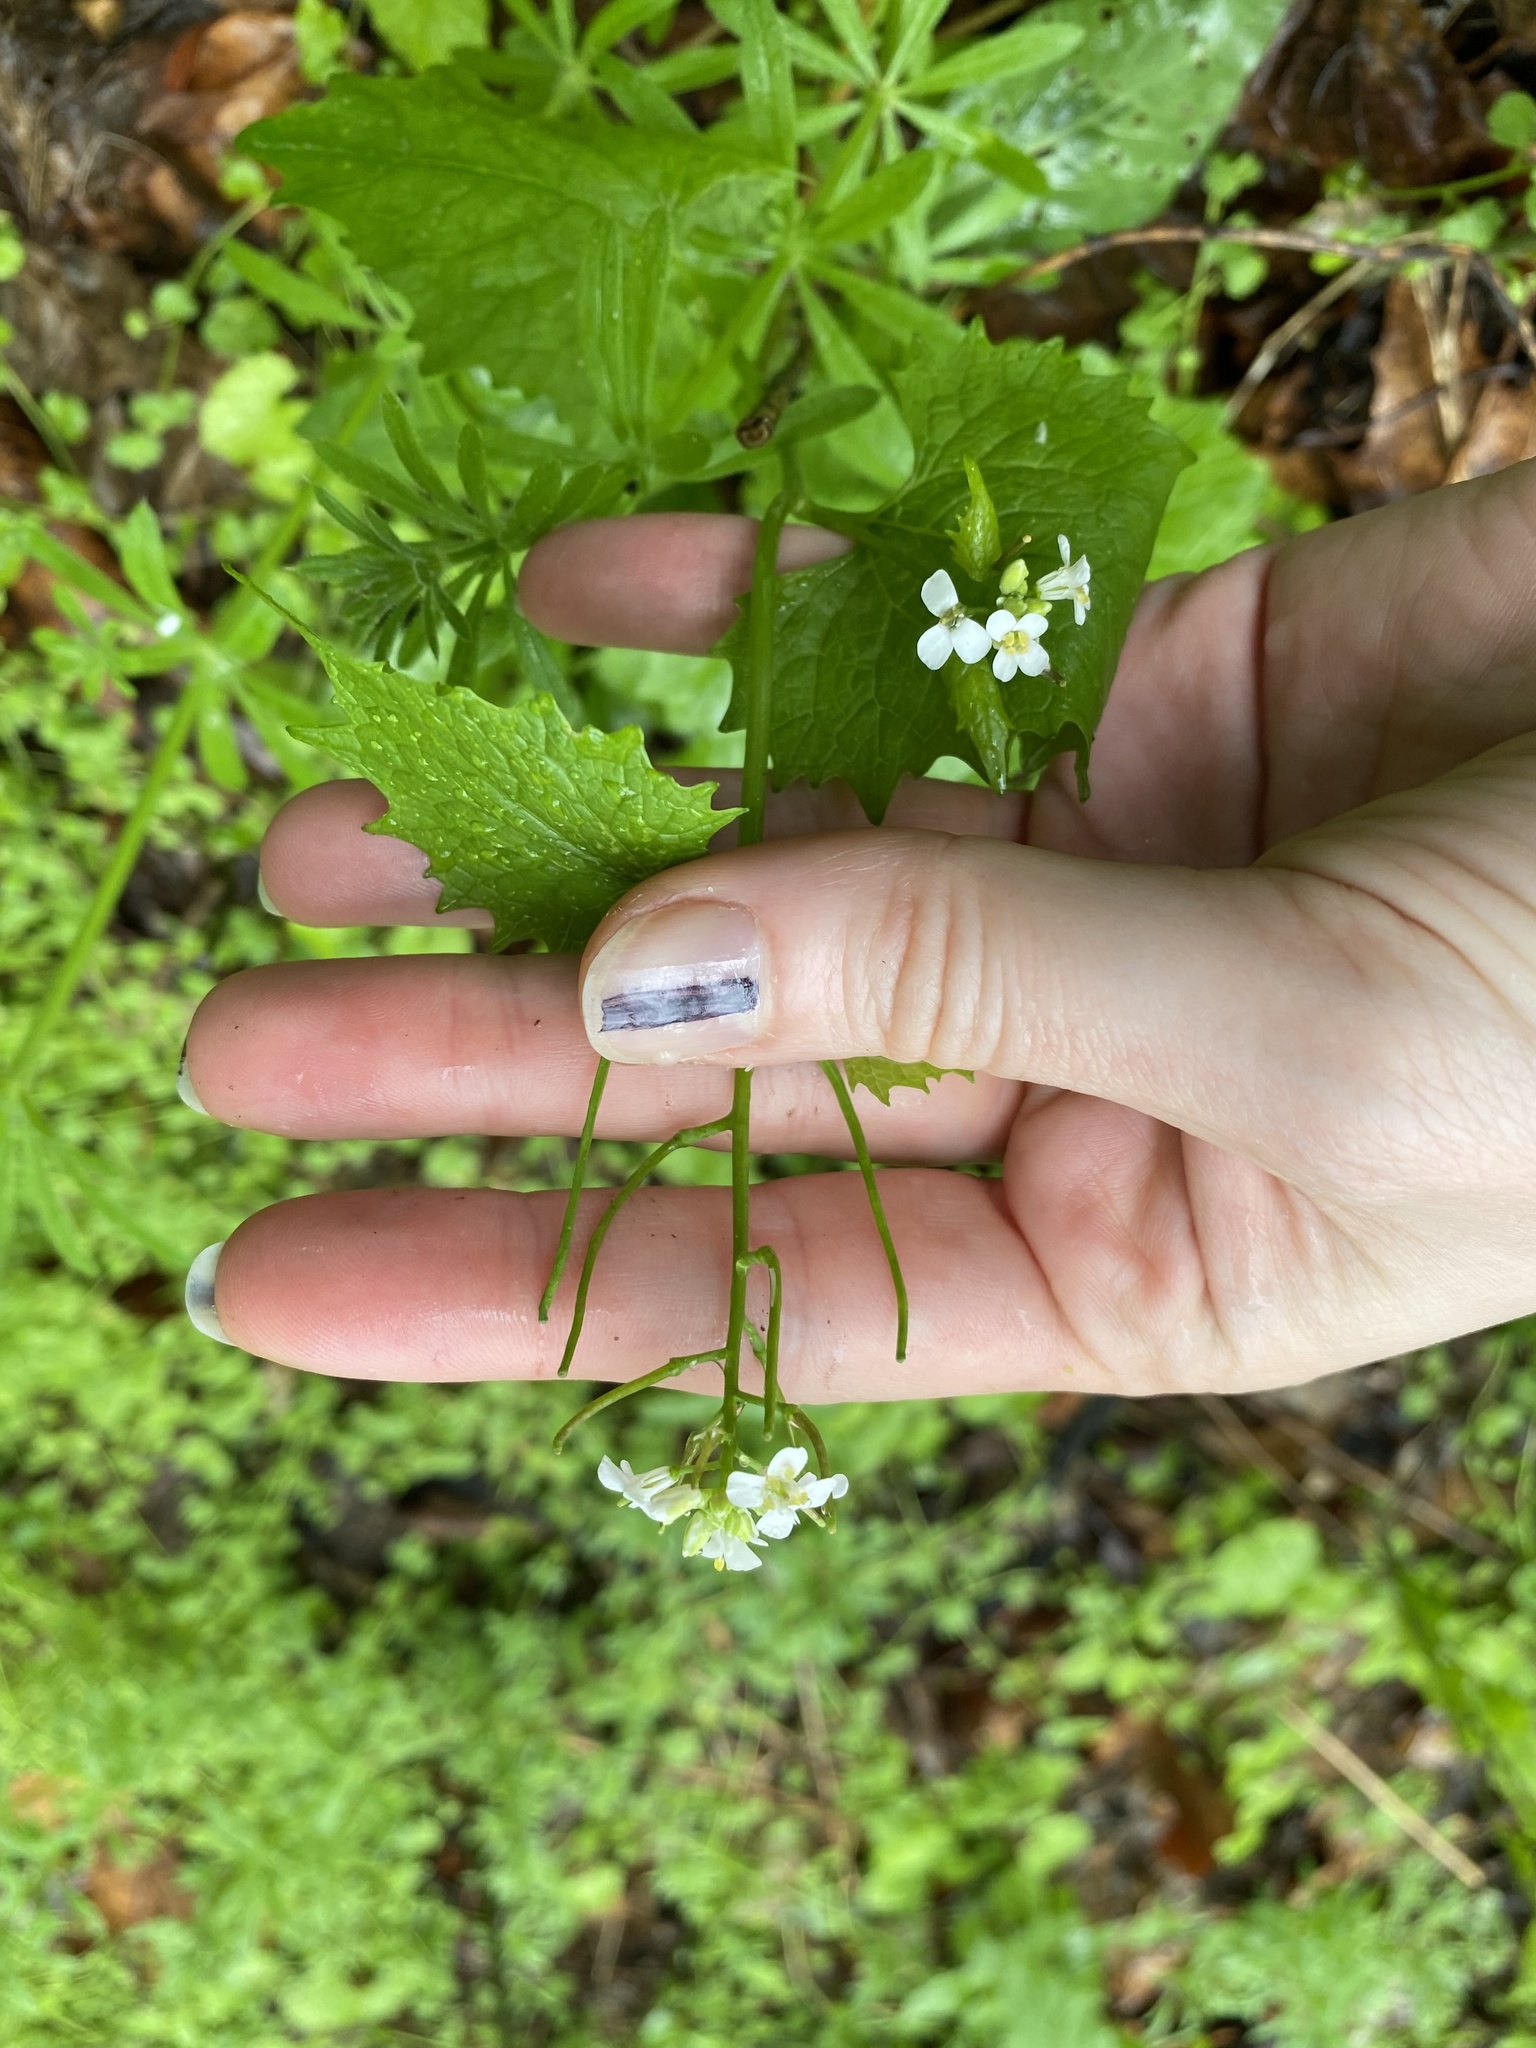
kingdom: Plantae
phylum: Tracheophyta
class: Magnoliopsida
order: Brassicales
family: Brassicaceae
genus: Alliaria
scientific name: Alliaria petiolata
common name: Garlic mustard
